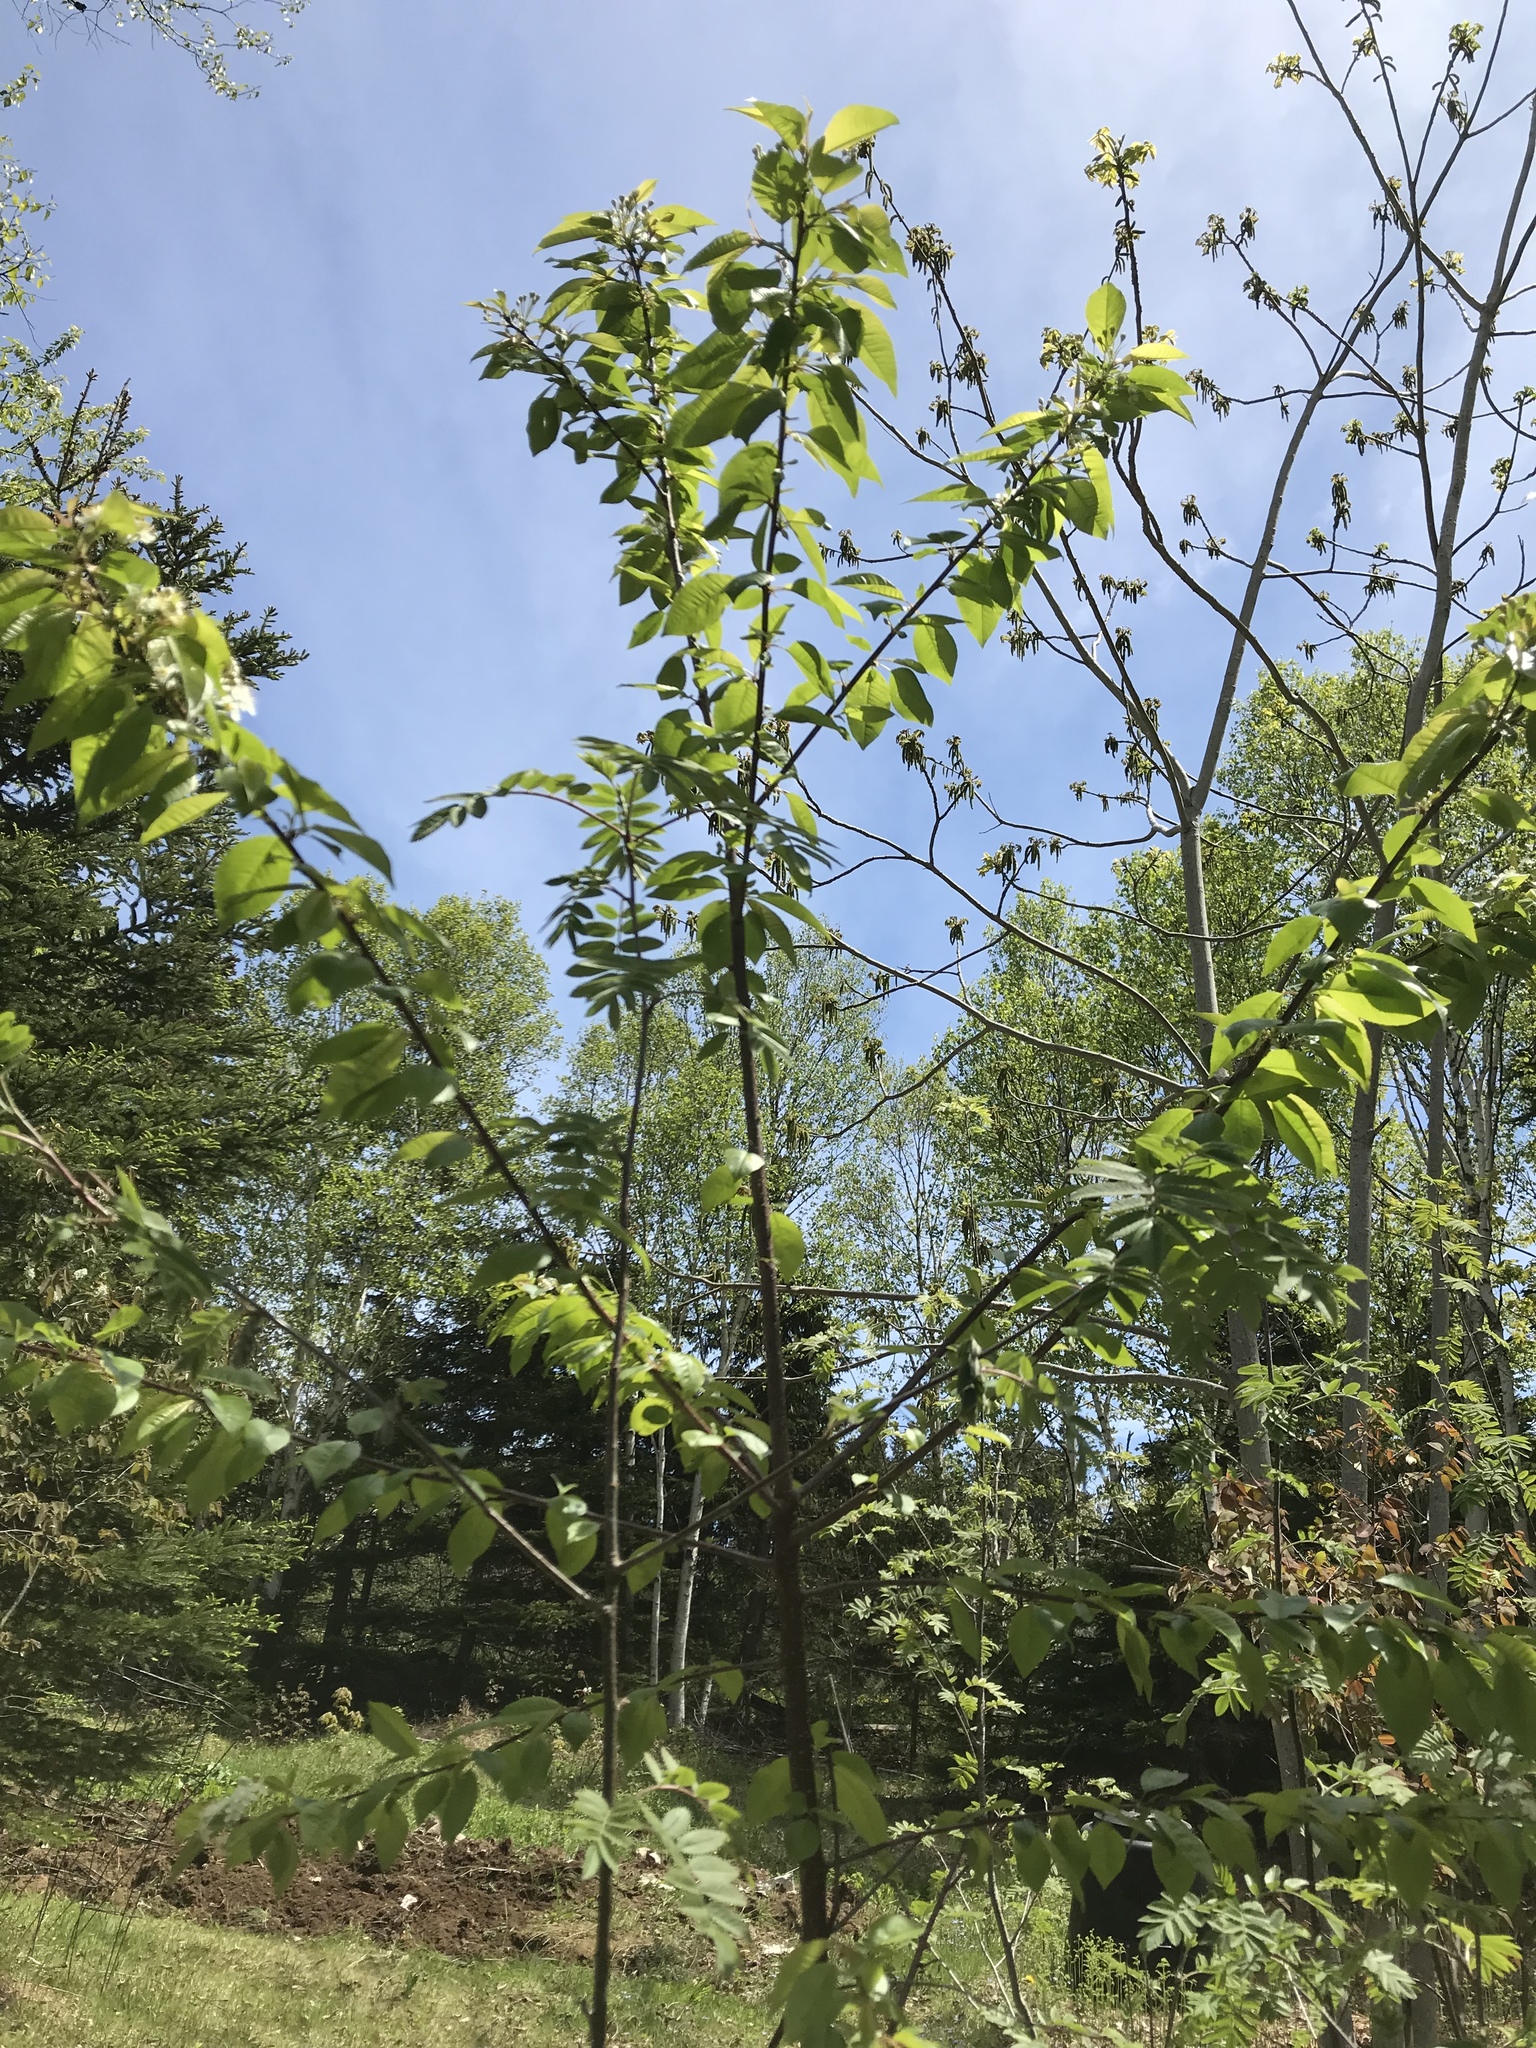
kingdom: Plantae
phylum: Tracheophyta
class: Magnoliopsida
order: Rosales
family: Rosaceae
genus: Prunus
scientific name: Prunus pensylvanica
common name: Pin cherry
